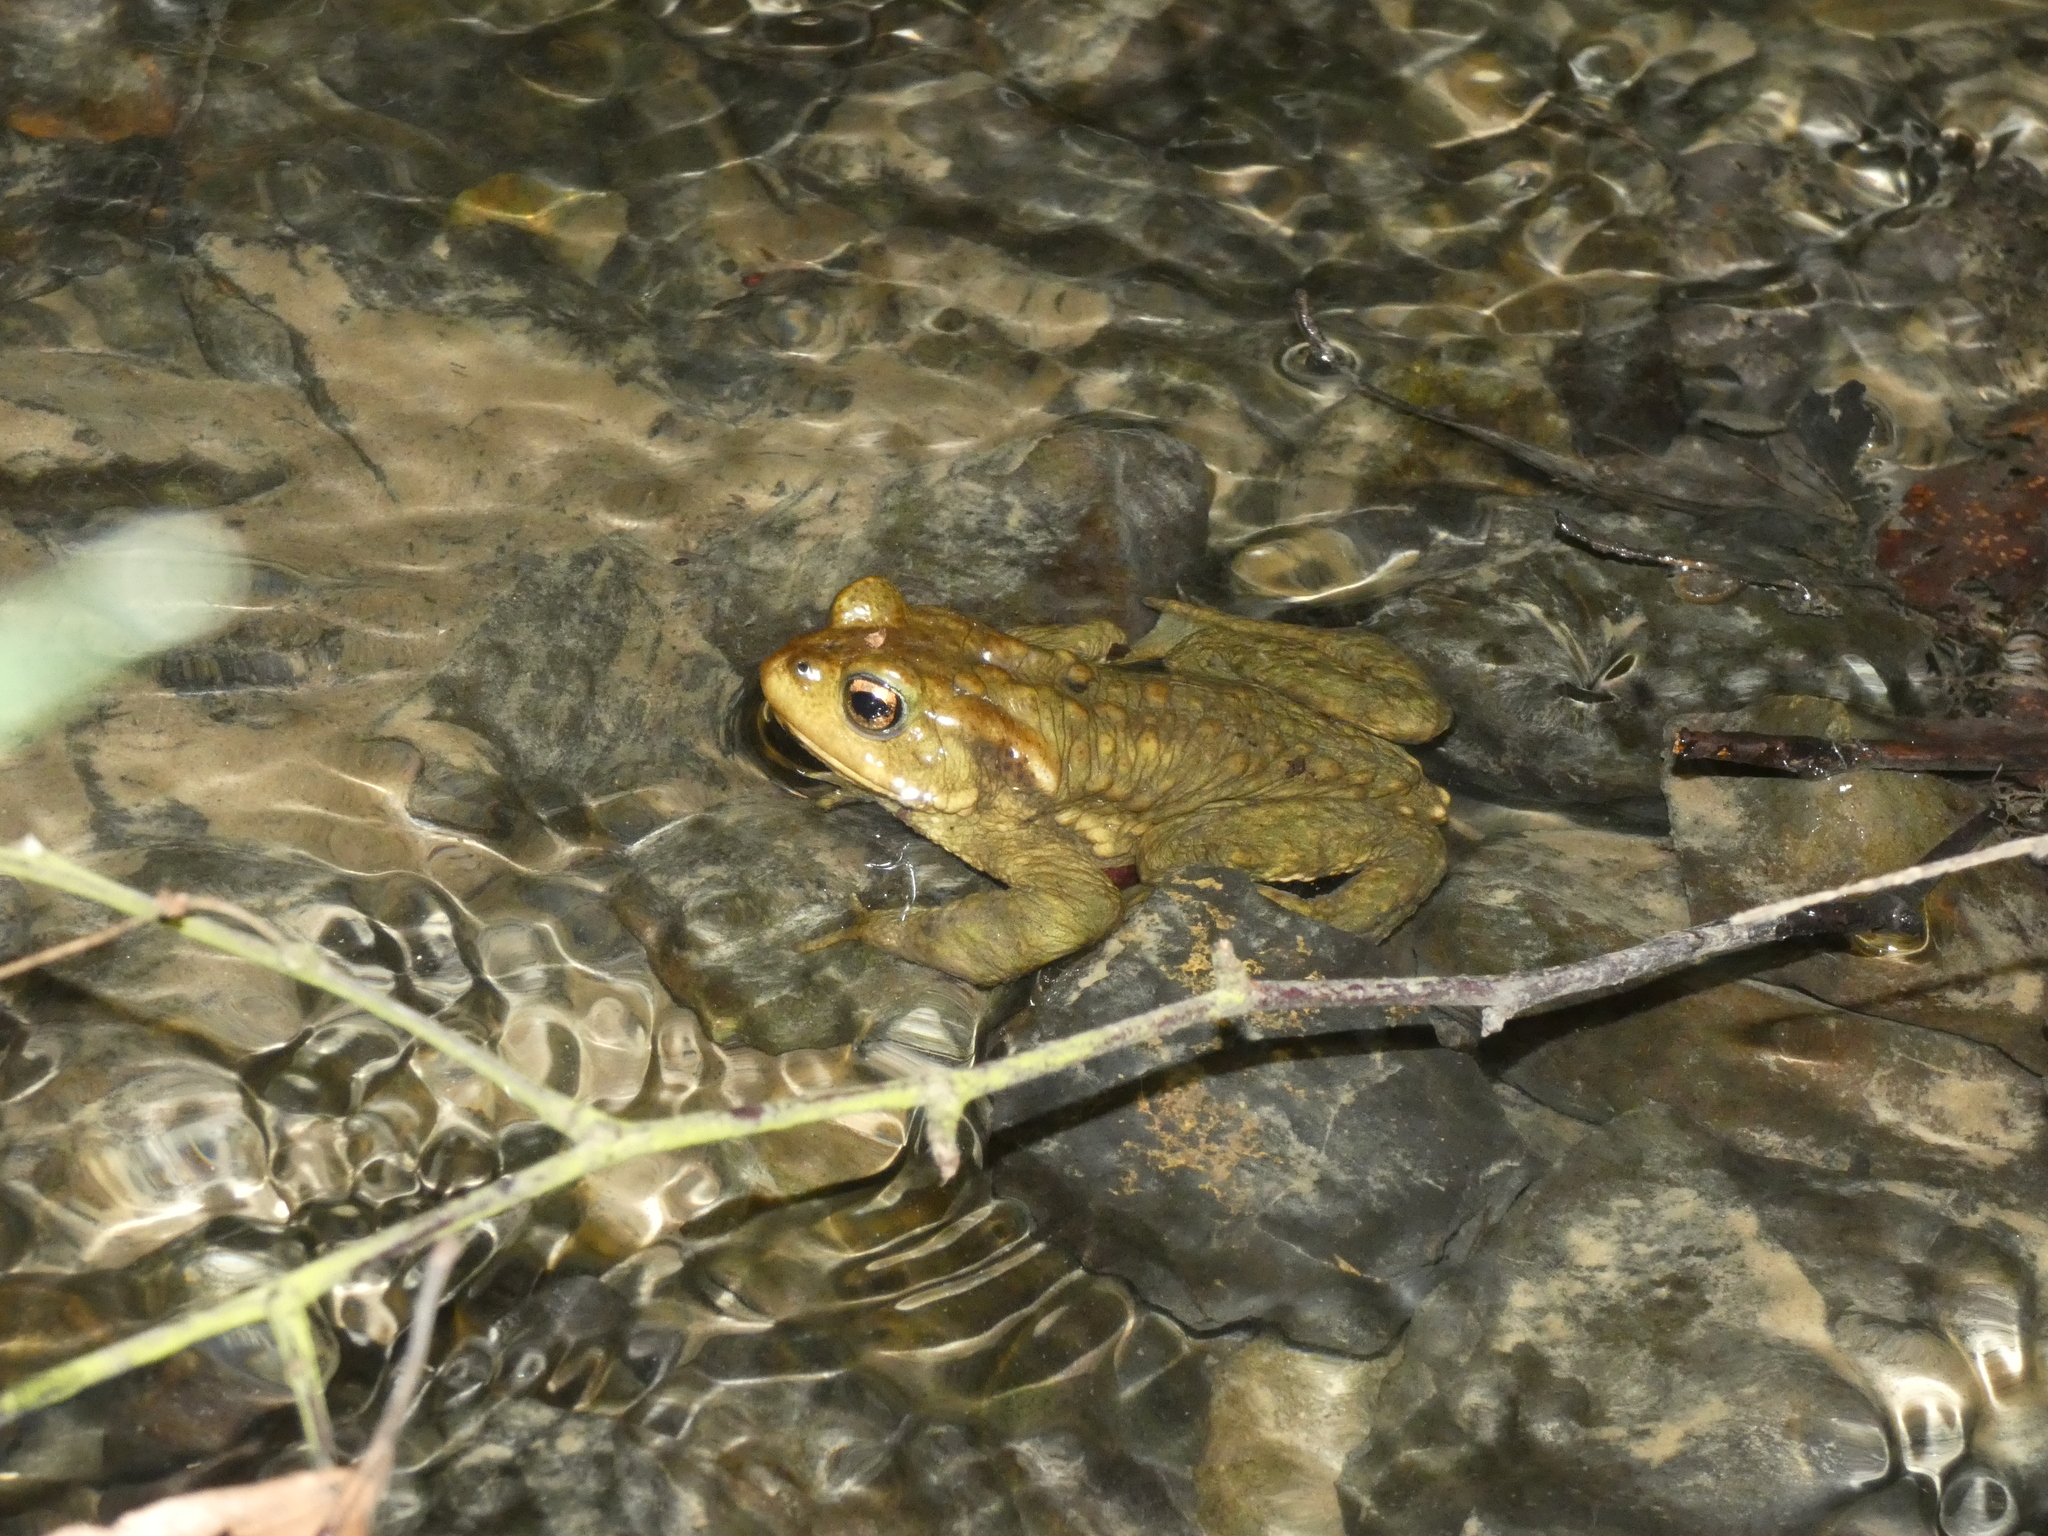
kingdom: Animalia
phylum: Chordata
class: Amphibia
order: Anura
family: Bufonidae
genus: Bufo
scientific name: Bufo bufo
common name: Common toad
